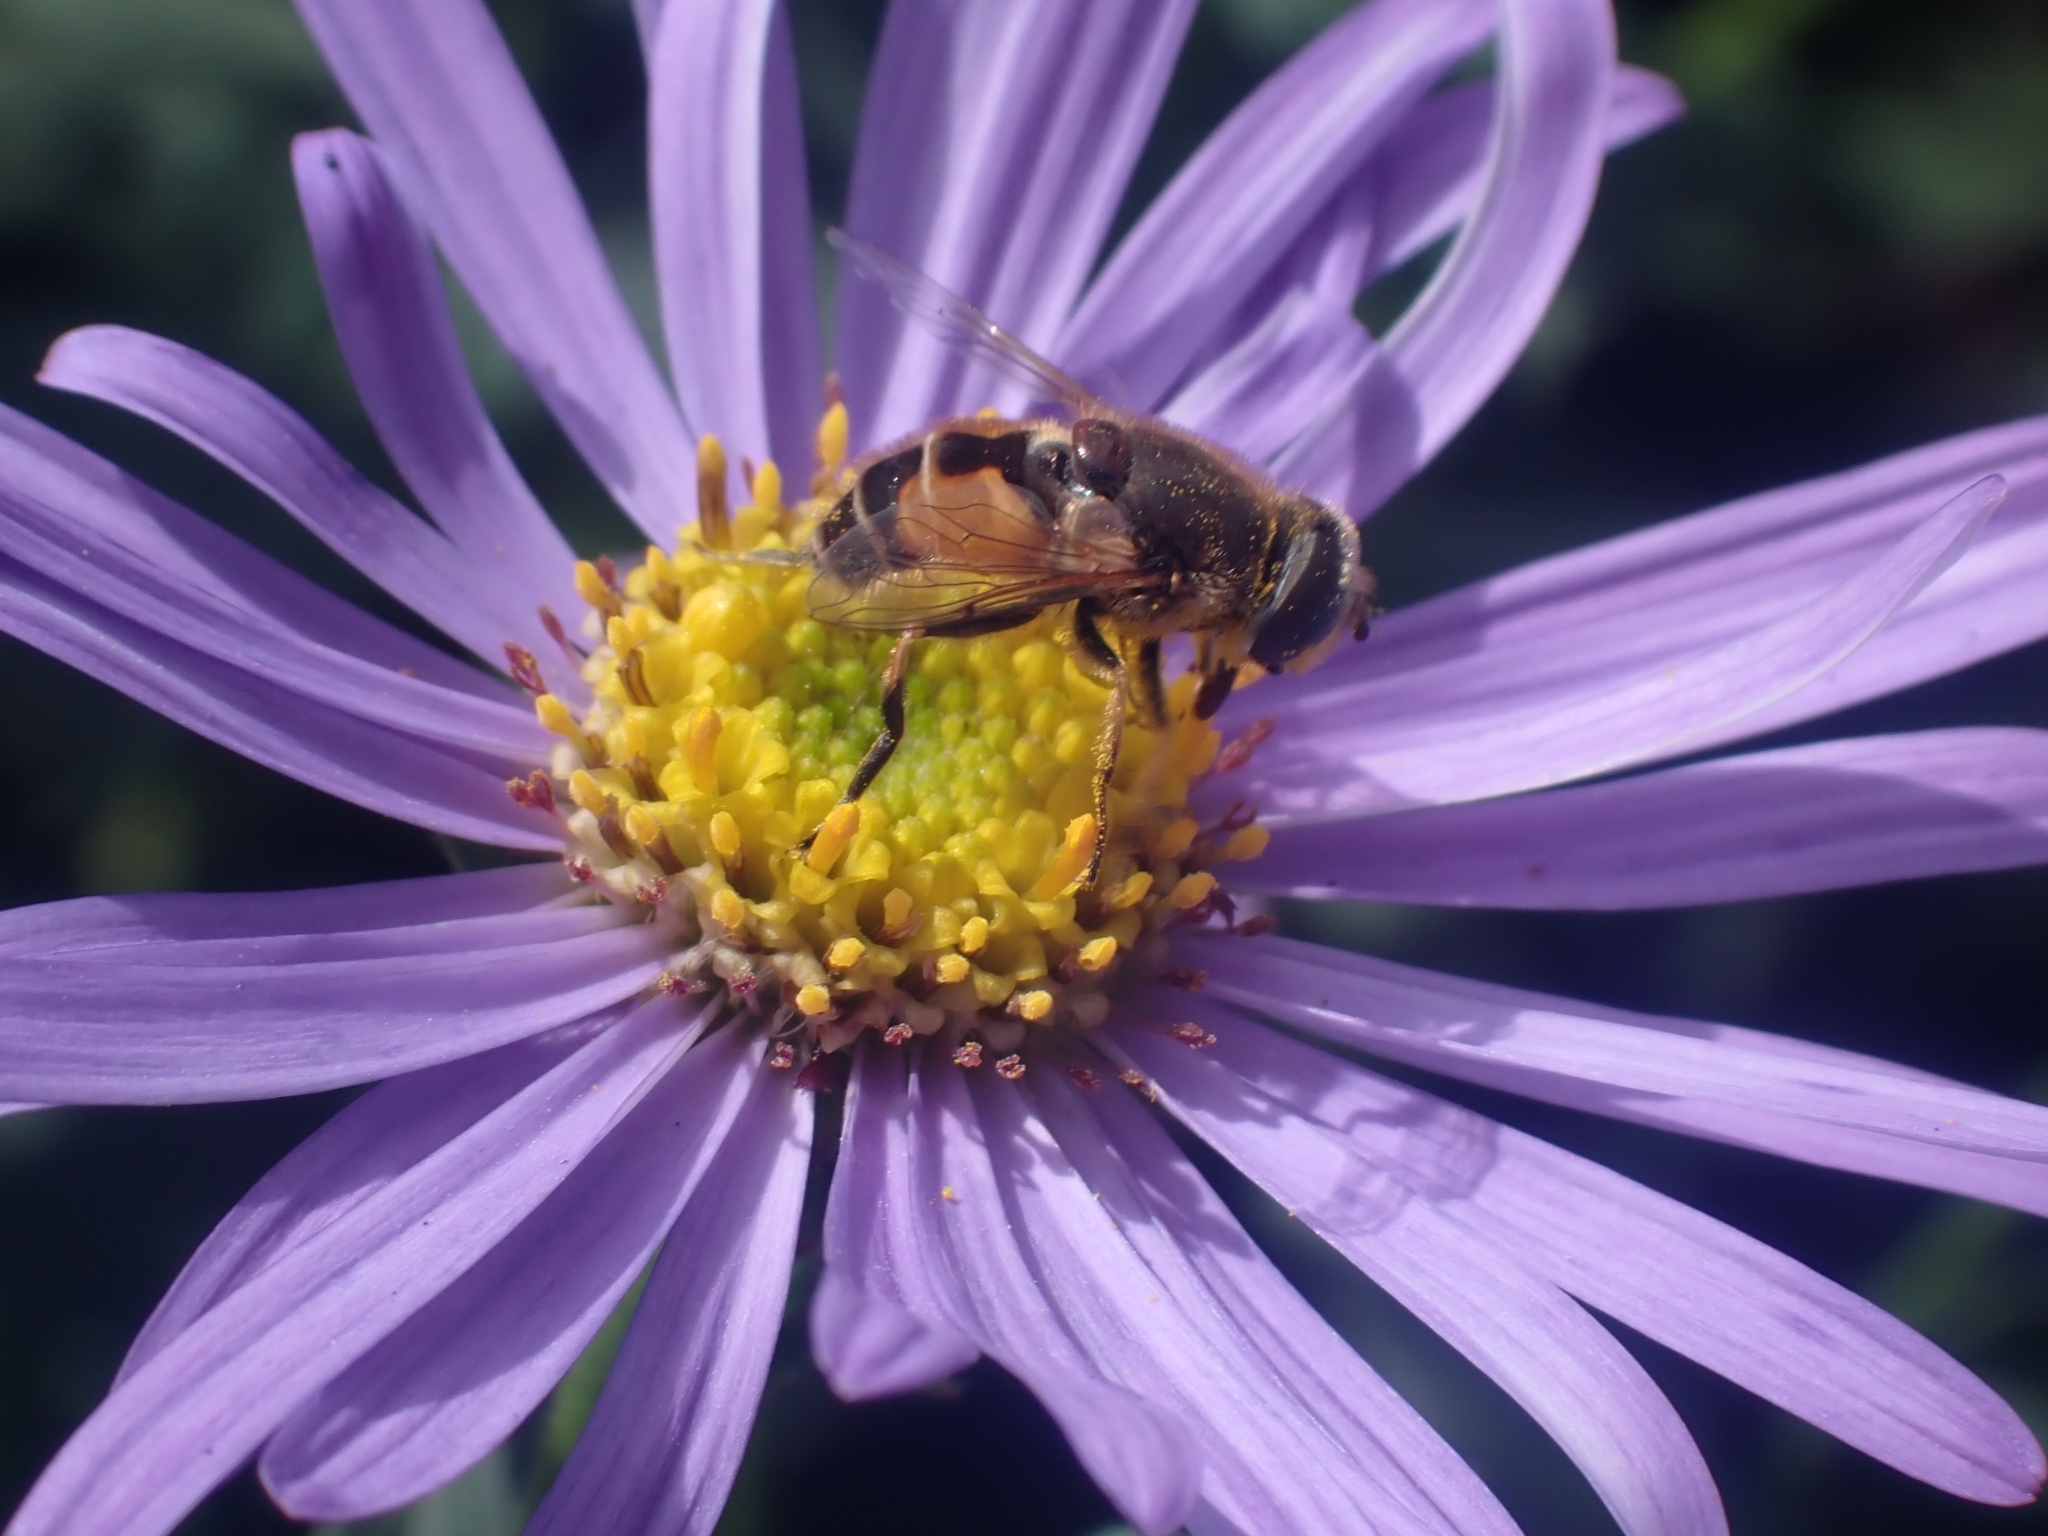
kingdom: Animalia
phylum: Arthropoda
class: Insecta
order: Diptera
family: Syrphidae
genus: Eristalis
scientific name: Eristalis arbustorum
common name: Hover fly
